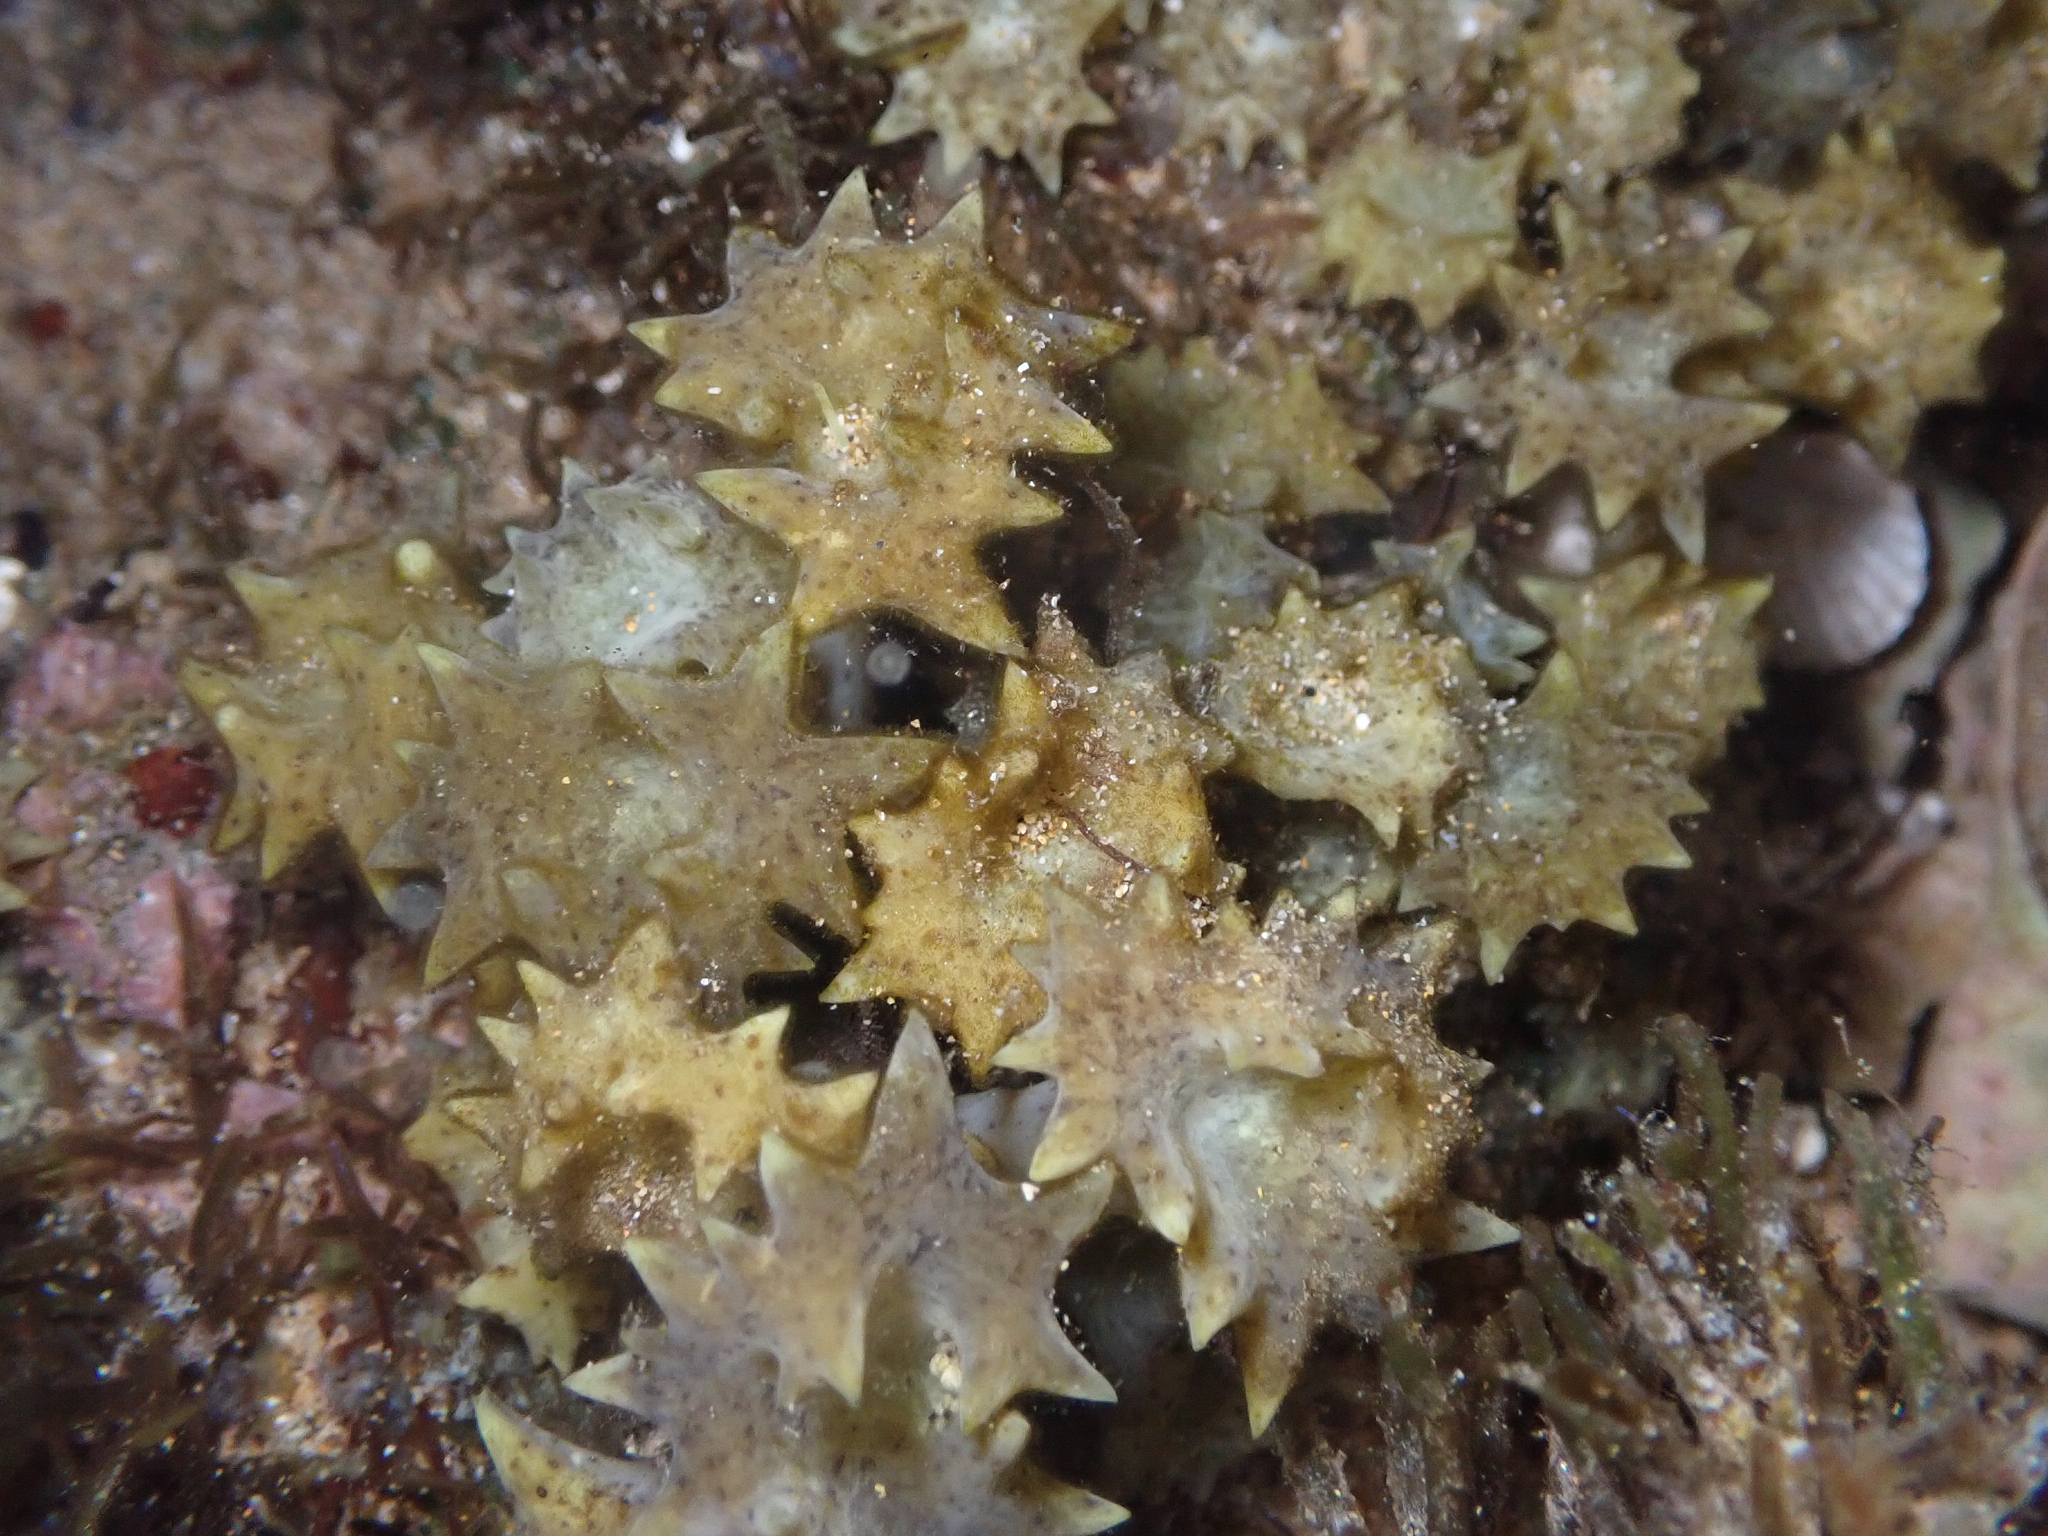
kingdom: Chromista
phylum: Ochrophyta
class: Phaeophyceae
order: Fucales
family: Sargassaceae
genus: Turbinaria
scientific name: Turbinaria ornata
